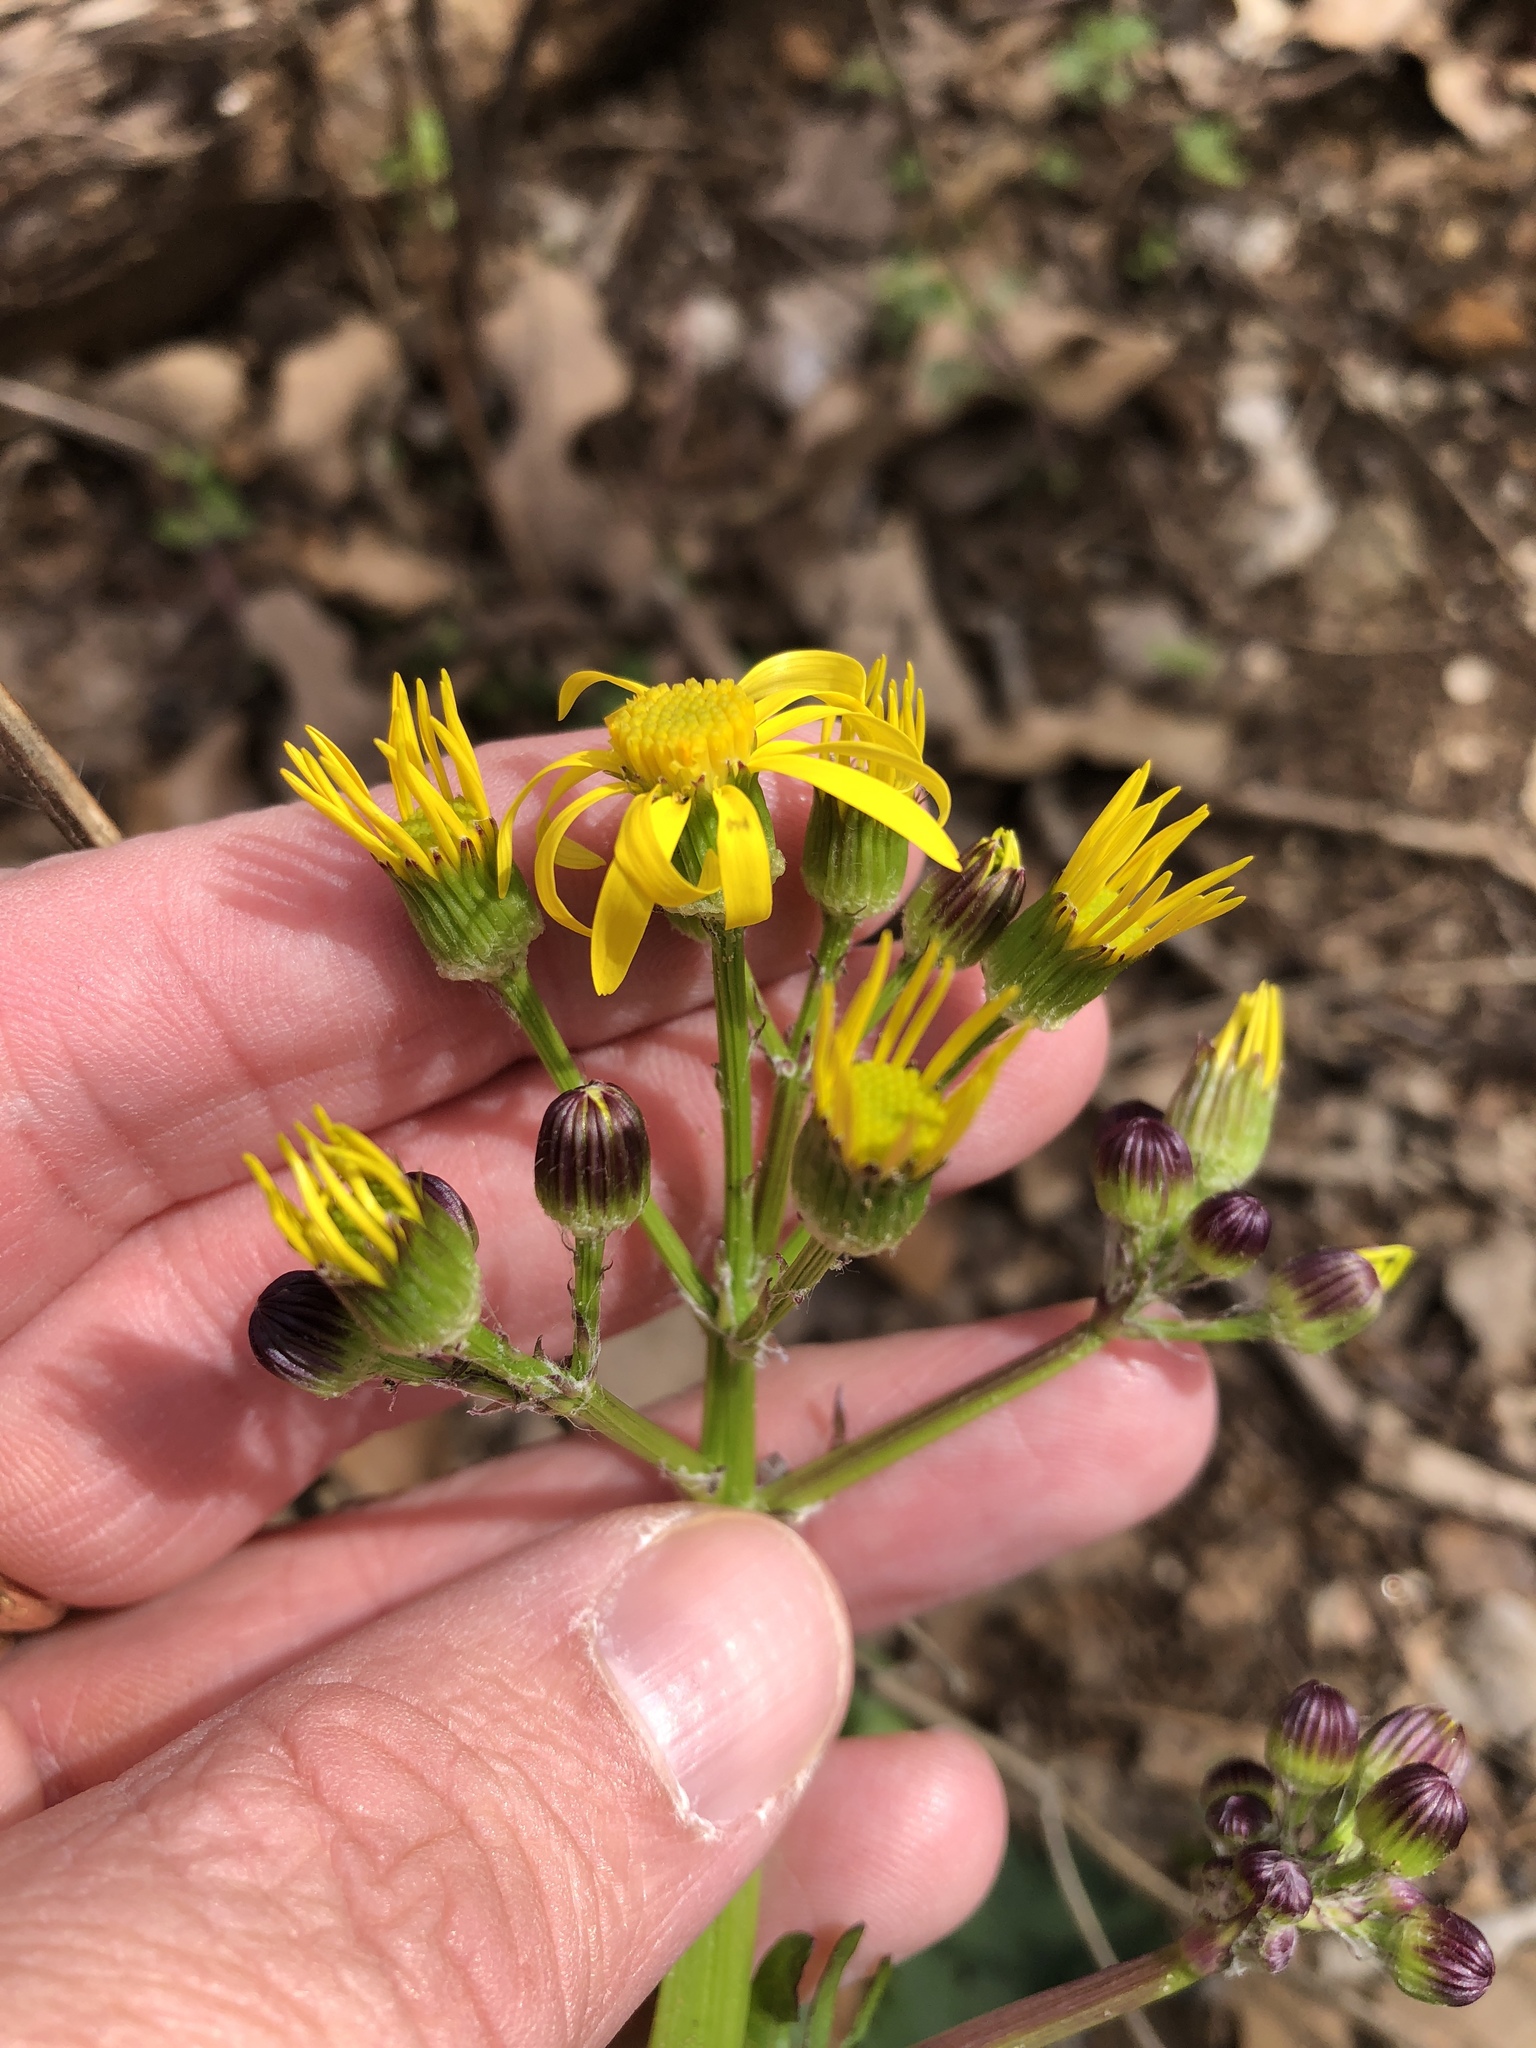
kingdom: Plantae
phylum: Tracheophyta
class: Magnoliopsida
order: Asterales
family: Asteraceae
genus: Packera
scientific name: Packera obovata
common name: Round-leaf ragwort
